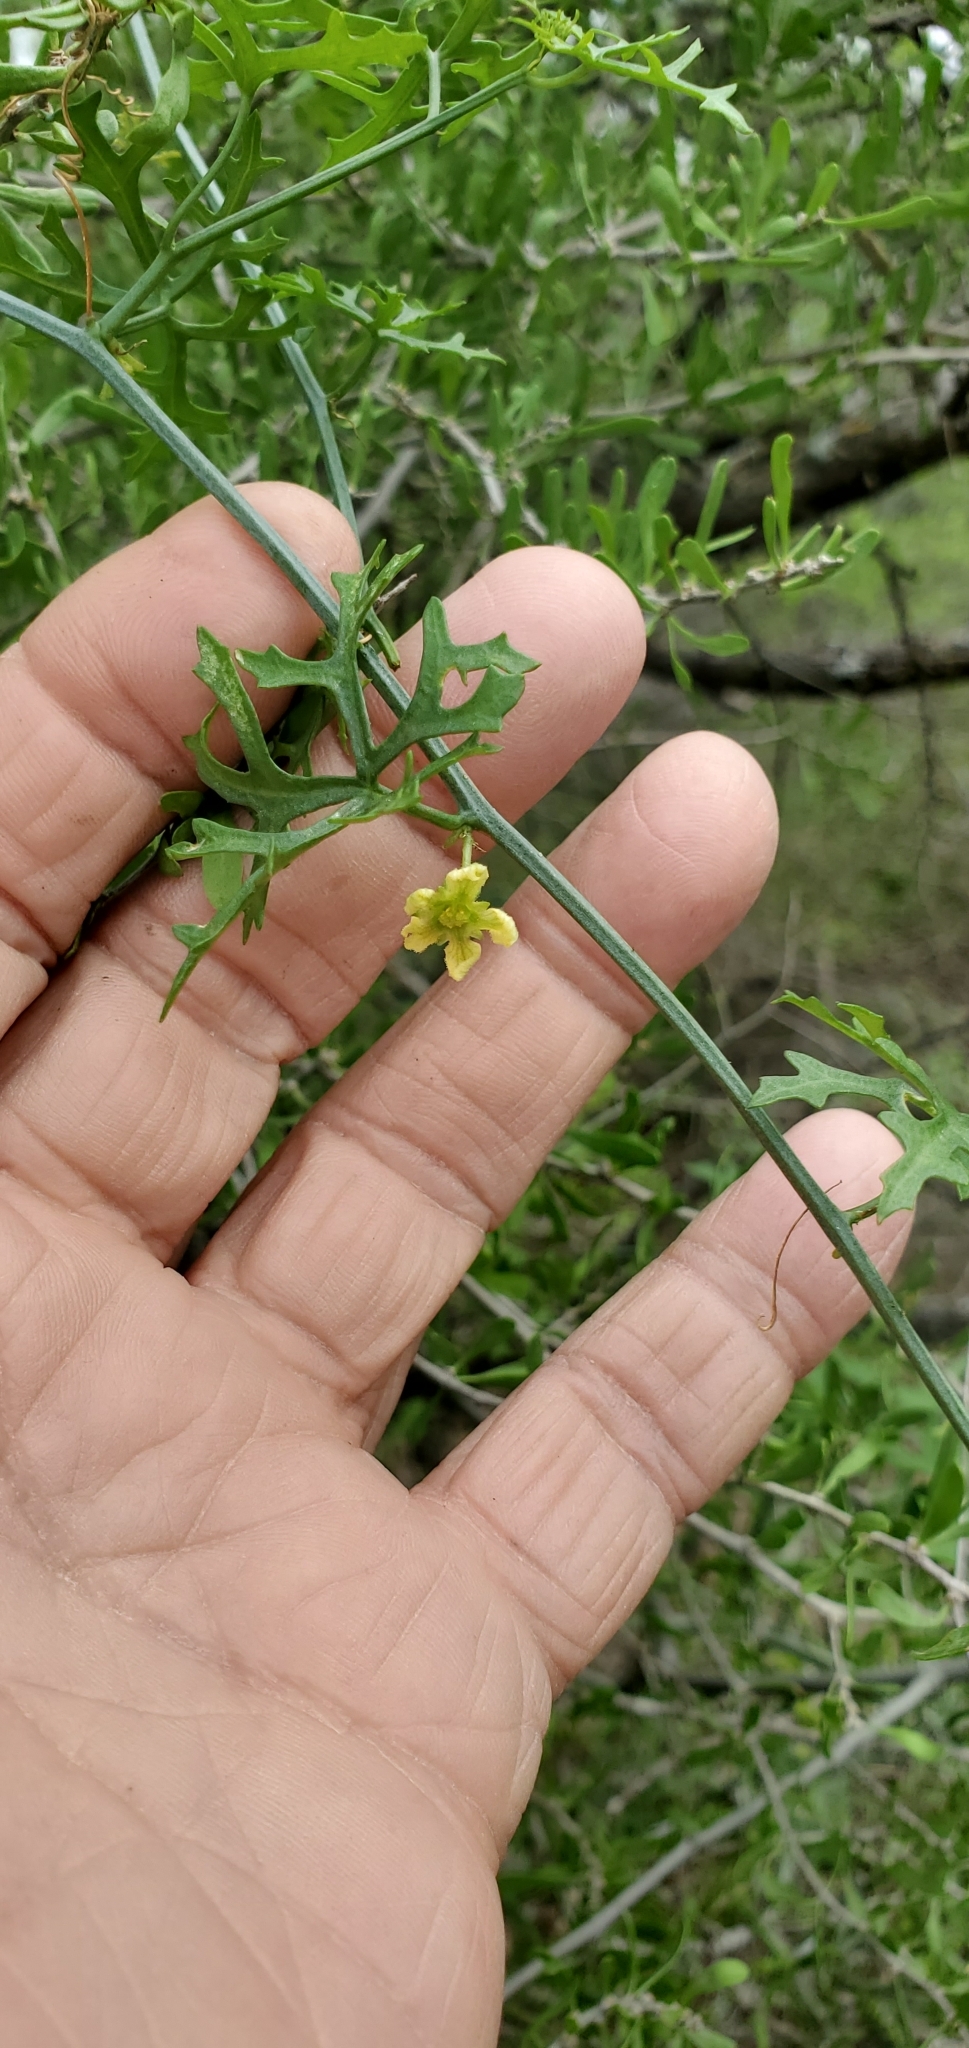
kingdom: Plantae
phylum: Tracheophyta
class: Magnoliopsida
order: Cucurbitales
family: Cucurbitaceae
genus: Ibervillea
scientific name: Ibervillea tenuisecta
